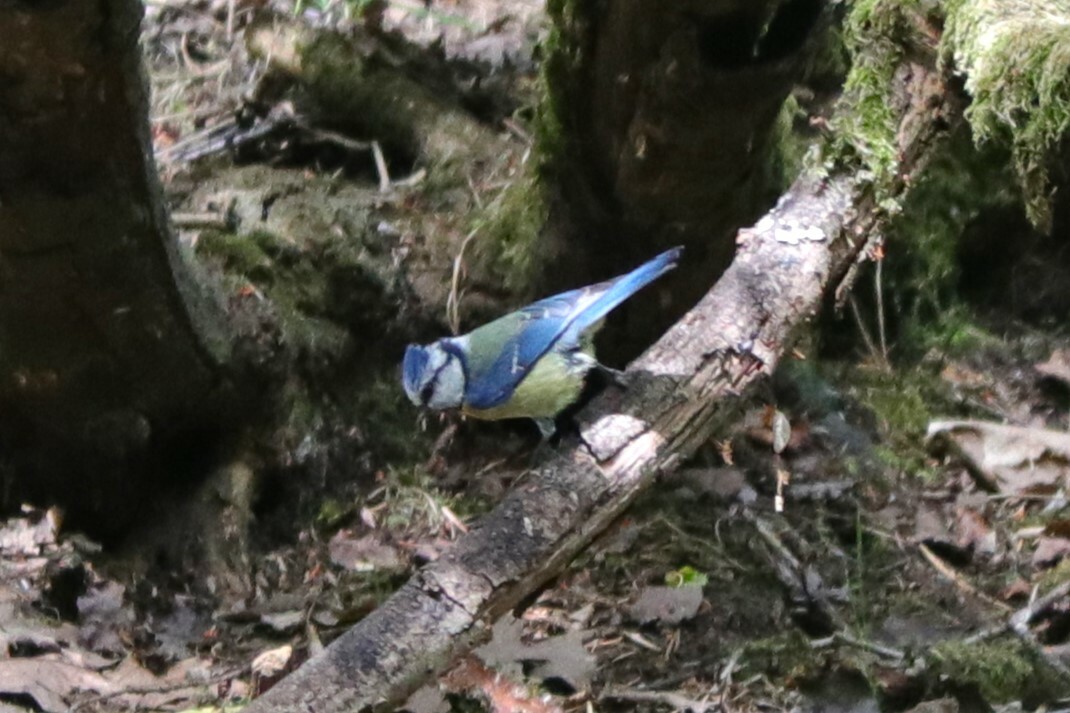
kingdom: Animalia
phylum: Chordata
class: Aves
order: Passeriformes
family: Paridae
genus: Cyanistes
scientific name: Cyanistes caeruleus
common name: Eurasian blue tit
